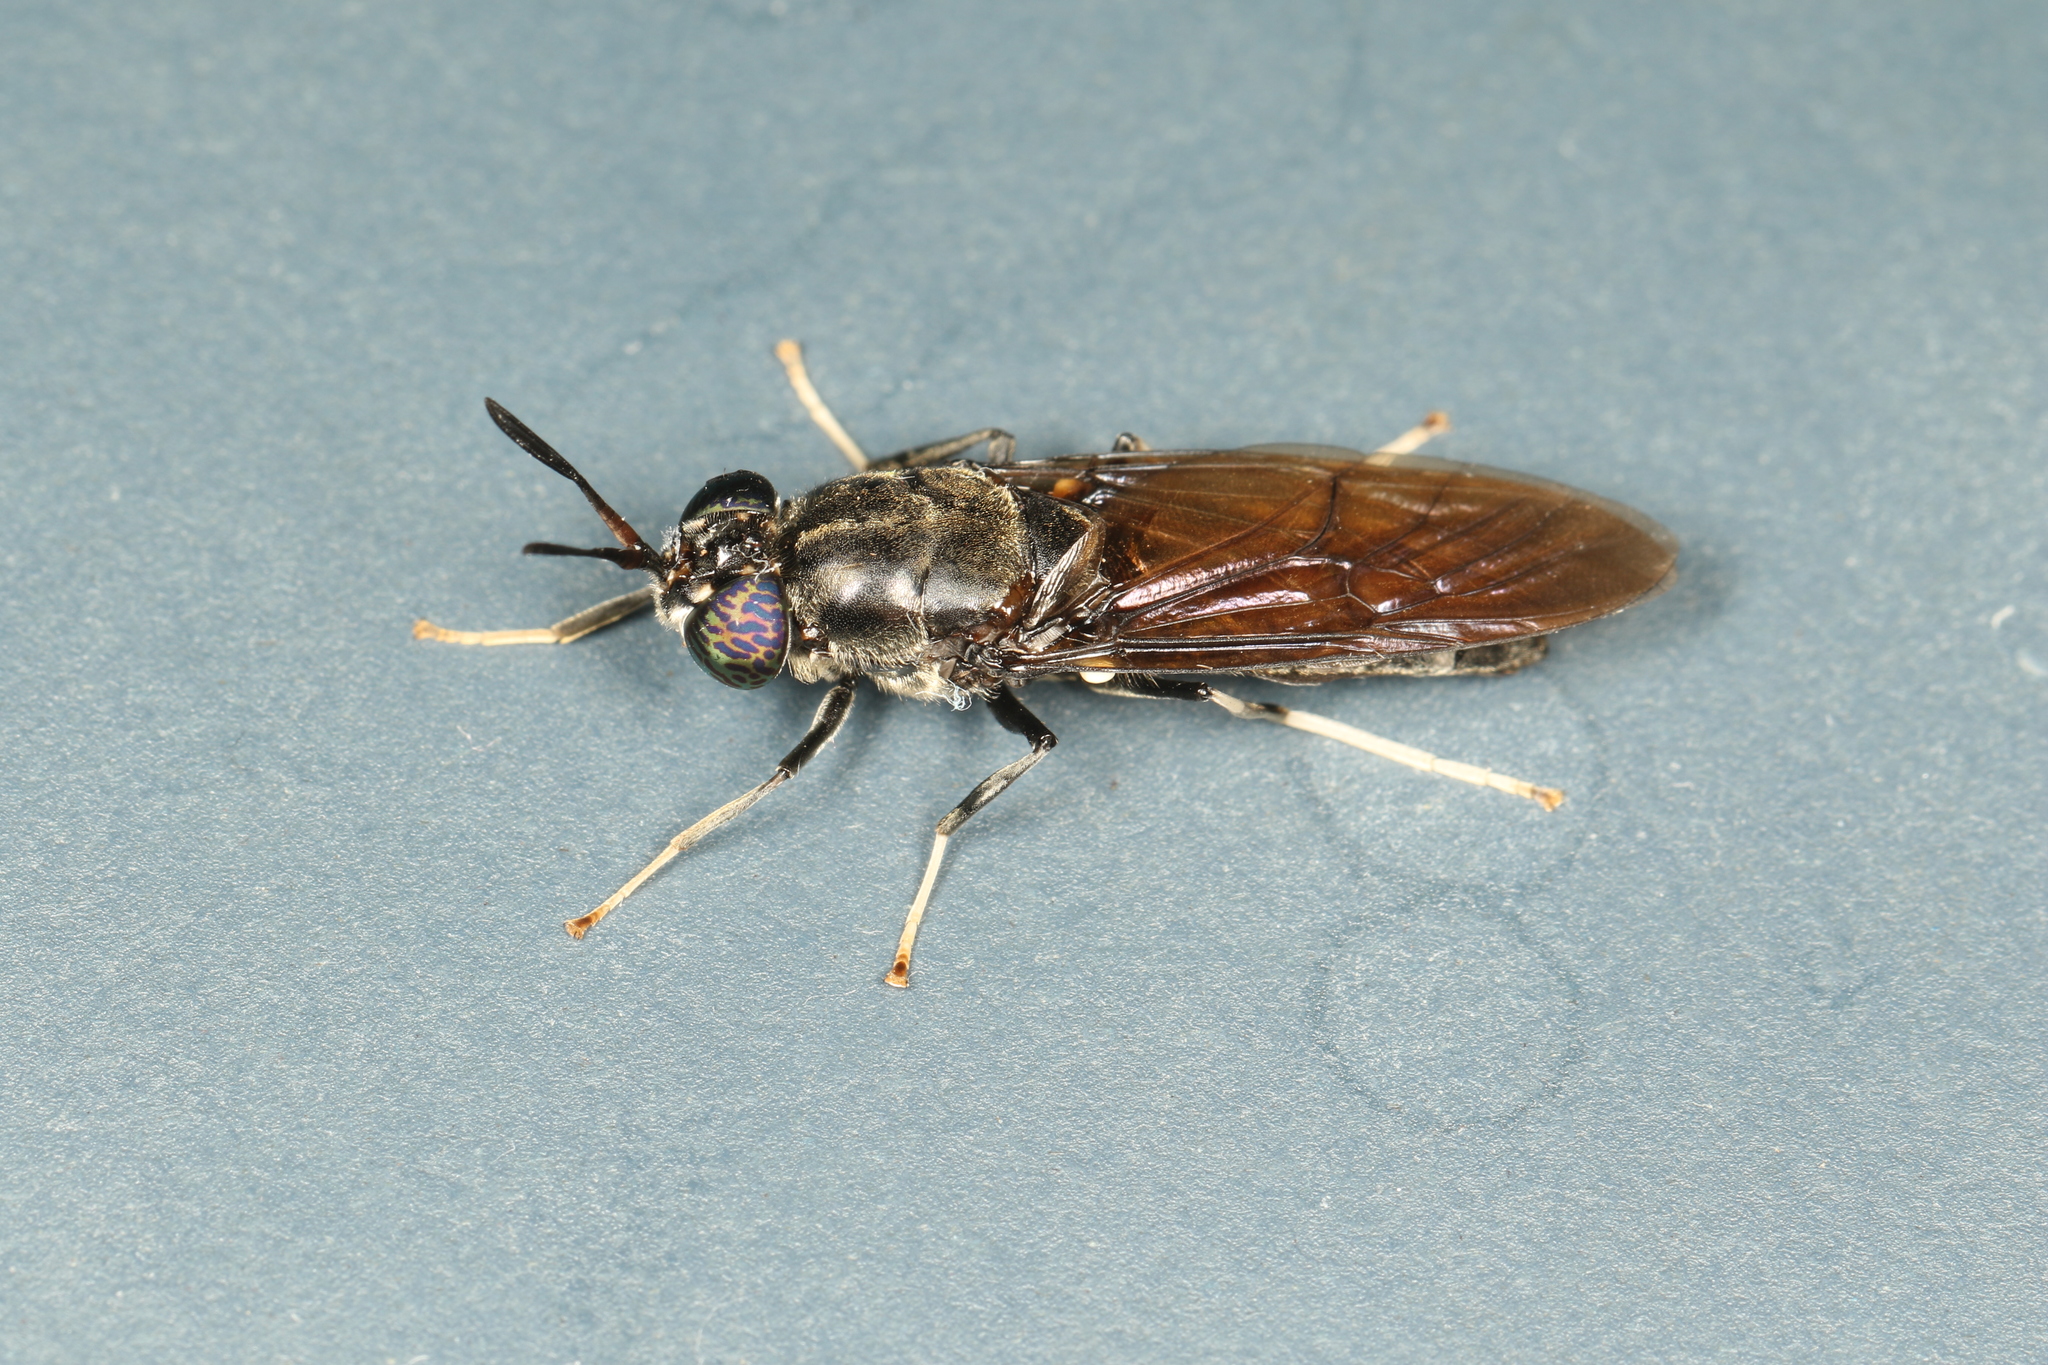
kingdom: Animalia
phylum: Arthropoda
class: Insecta
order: Diptera
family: Stratiomyidae
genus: Hermetia
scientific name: Hermetia illucens
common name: Black soldier fly
